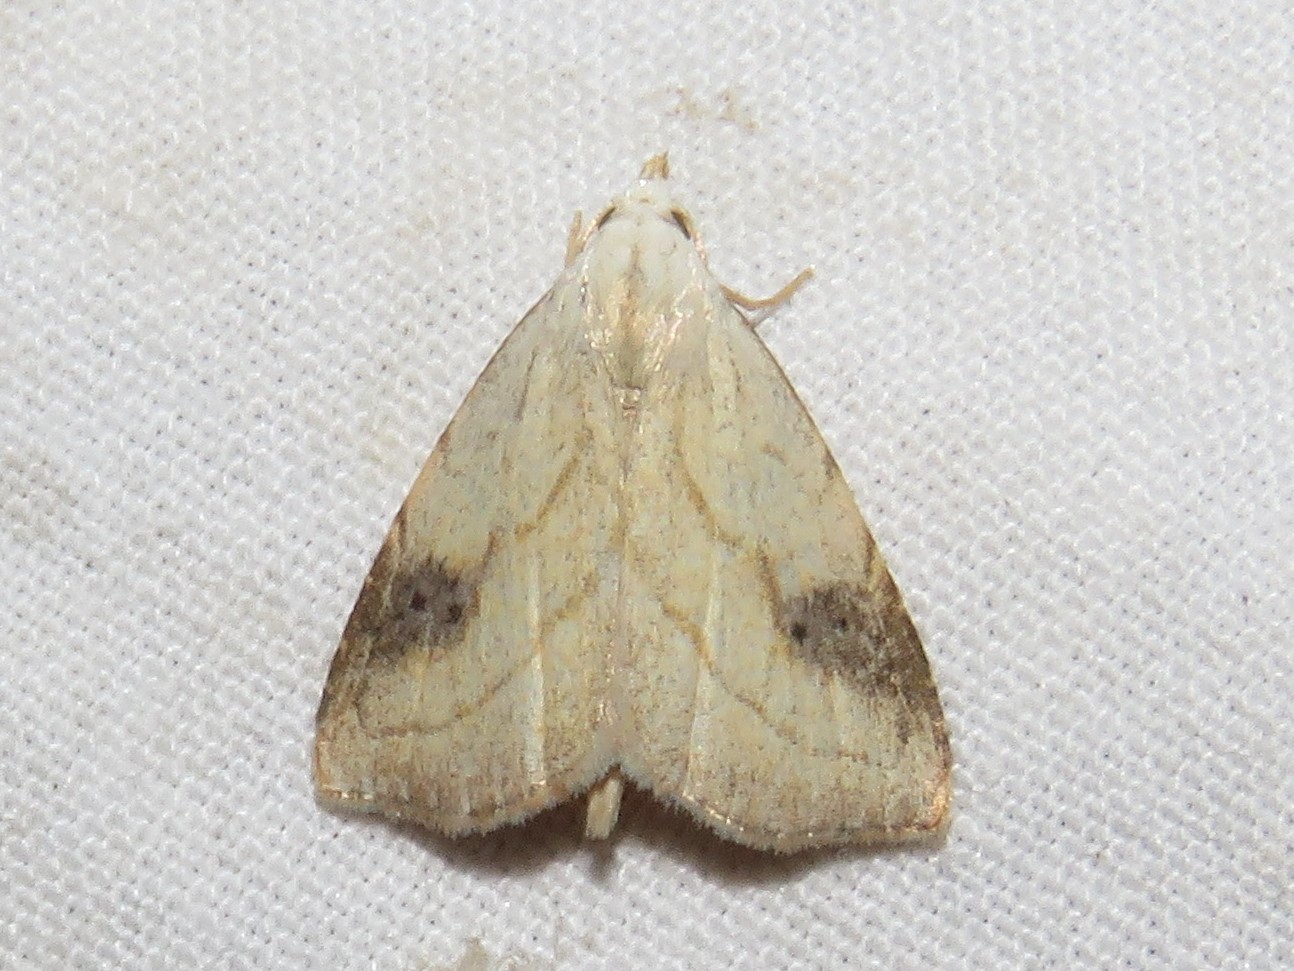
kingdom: Animalia
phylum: Arthropoda
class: Insecta
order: Lepidoptera
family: Erebidae
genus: Rivula
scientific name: Rivula propinqualis
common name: Spotted grass moth
